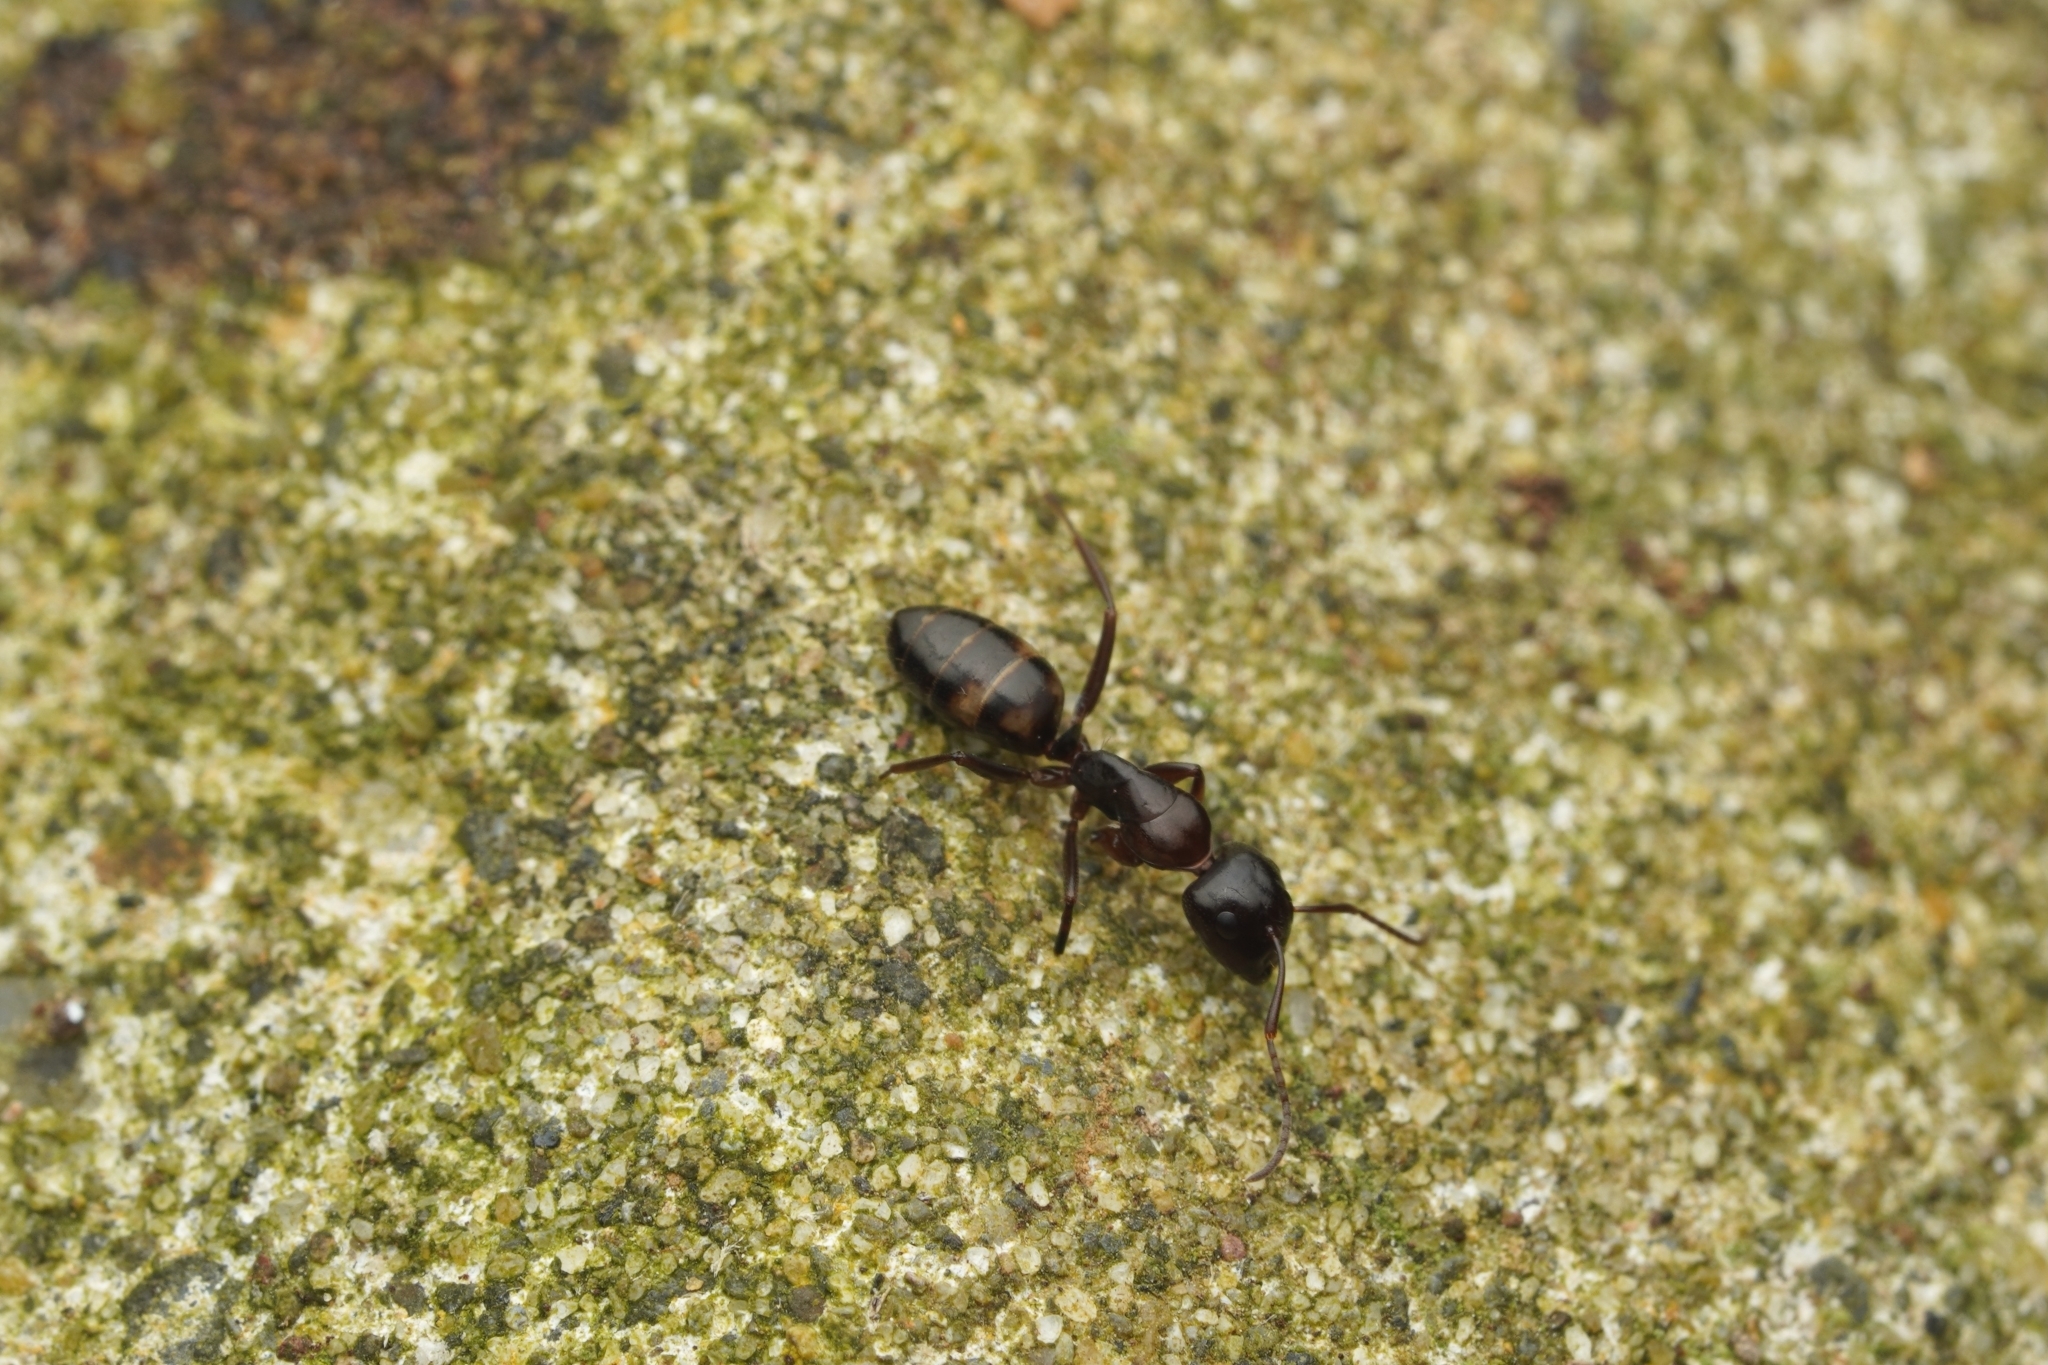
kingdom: Animalia
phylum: Arthropoda
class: Insecta
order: Hymenoptera
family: Formicidae
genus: Camponotus
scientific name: Camponotus quadrinotatus
